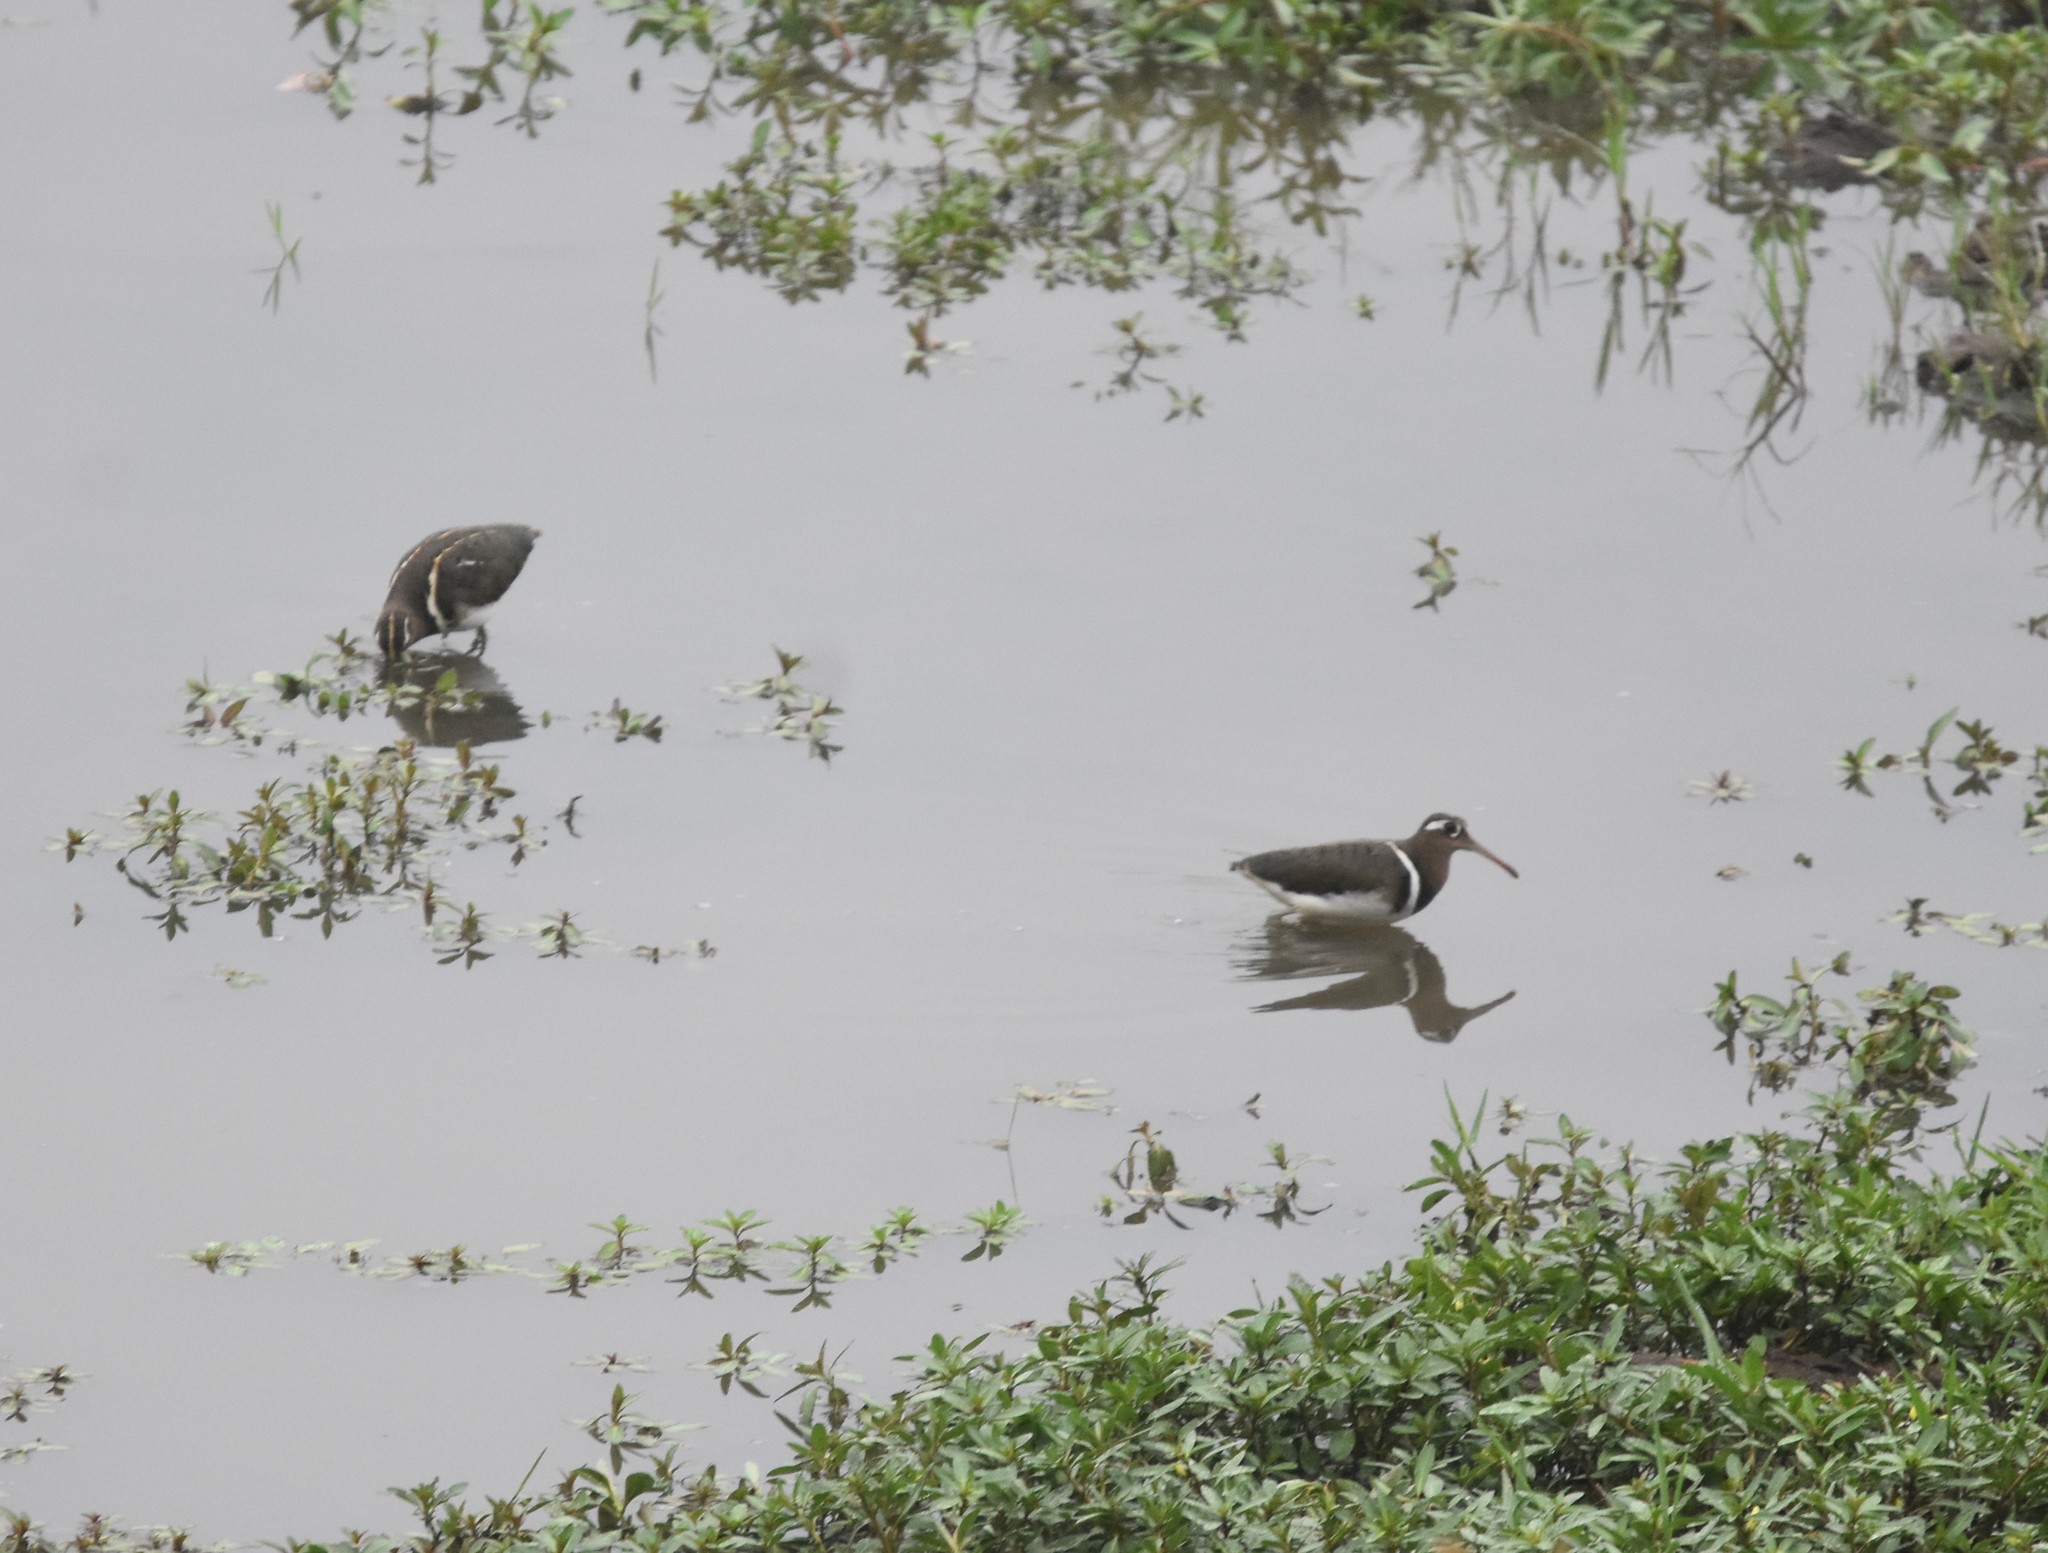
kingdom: Animalia
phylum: Chordata
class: Aves
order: Charadriiformes
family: Rostratulidae
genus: Rostratula
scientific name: Rostratula benghalensis
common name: Greater painted-snipe
